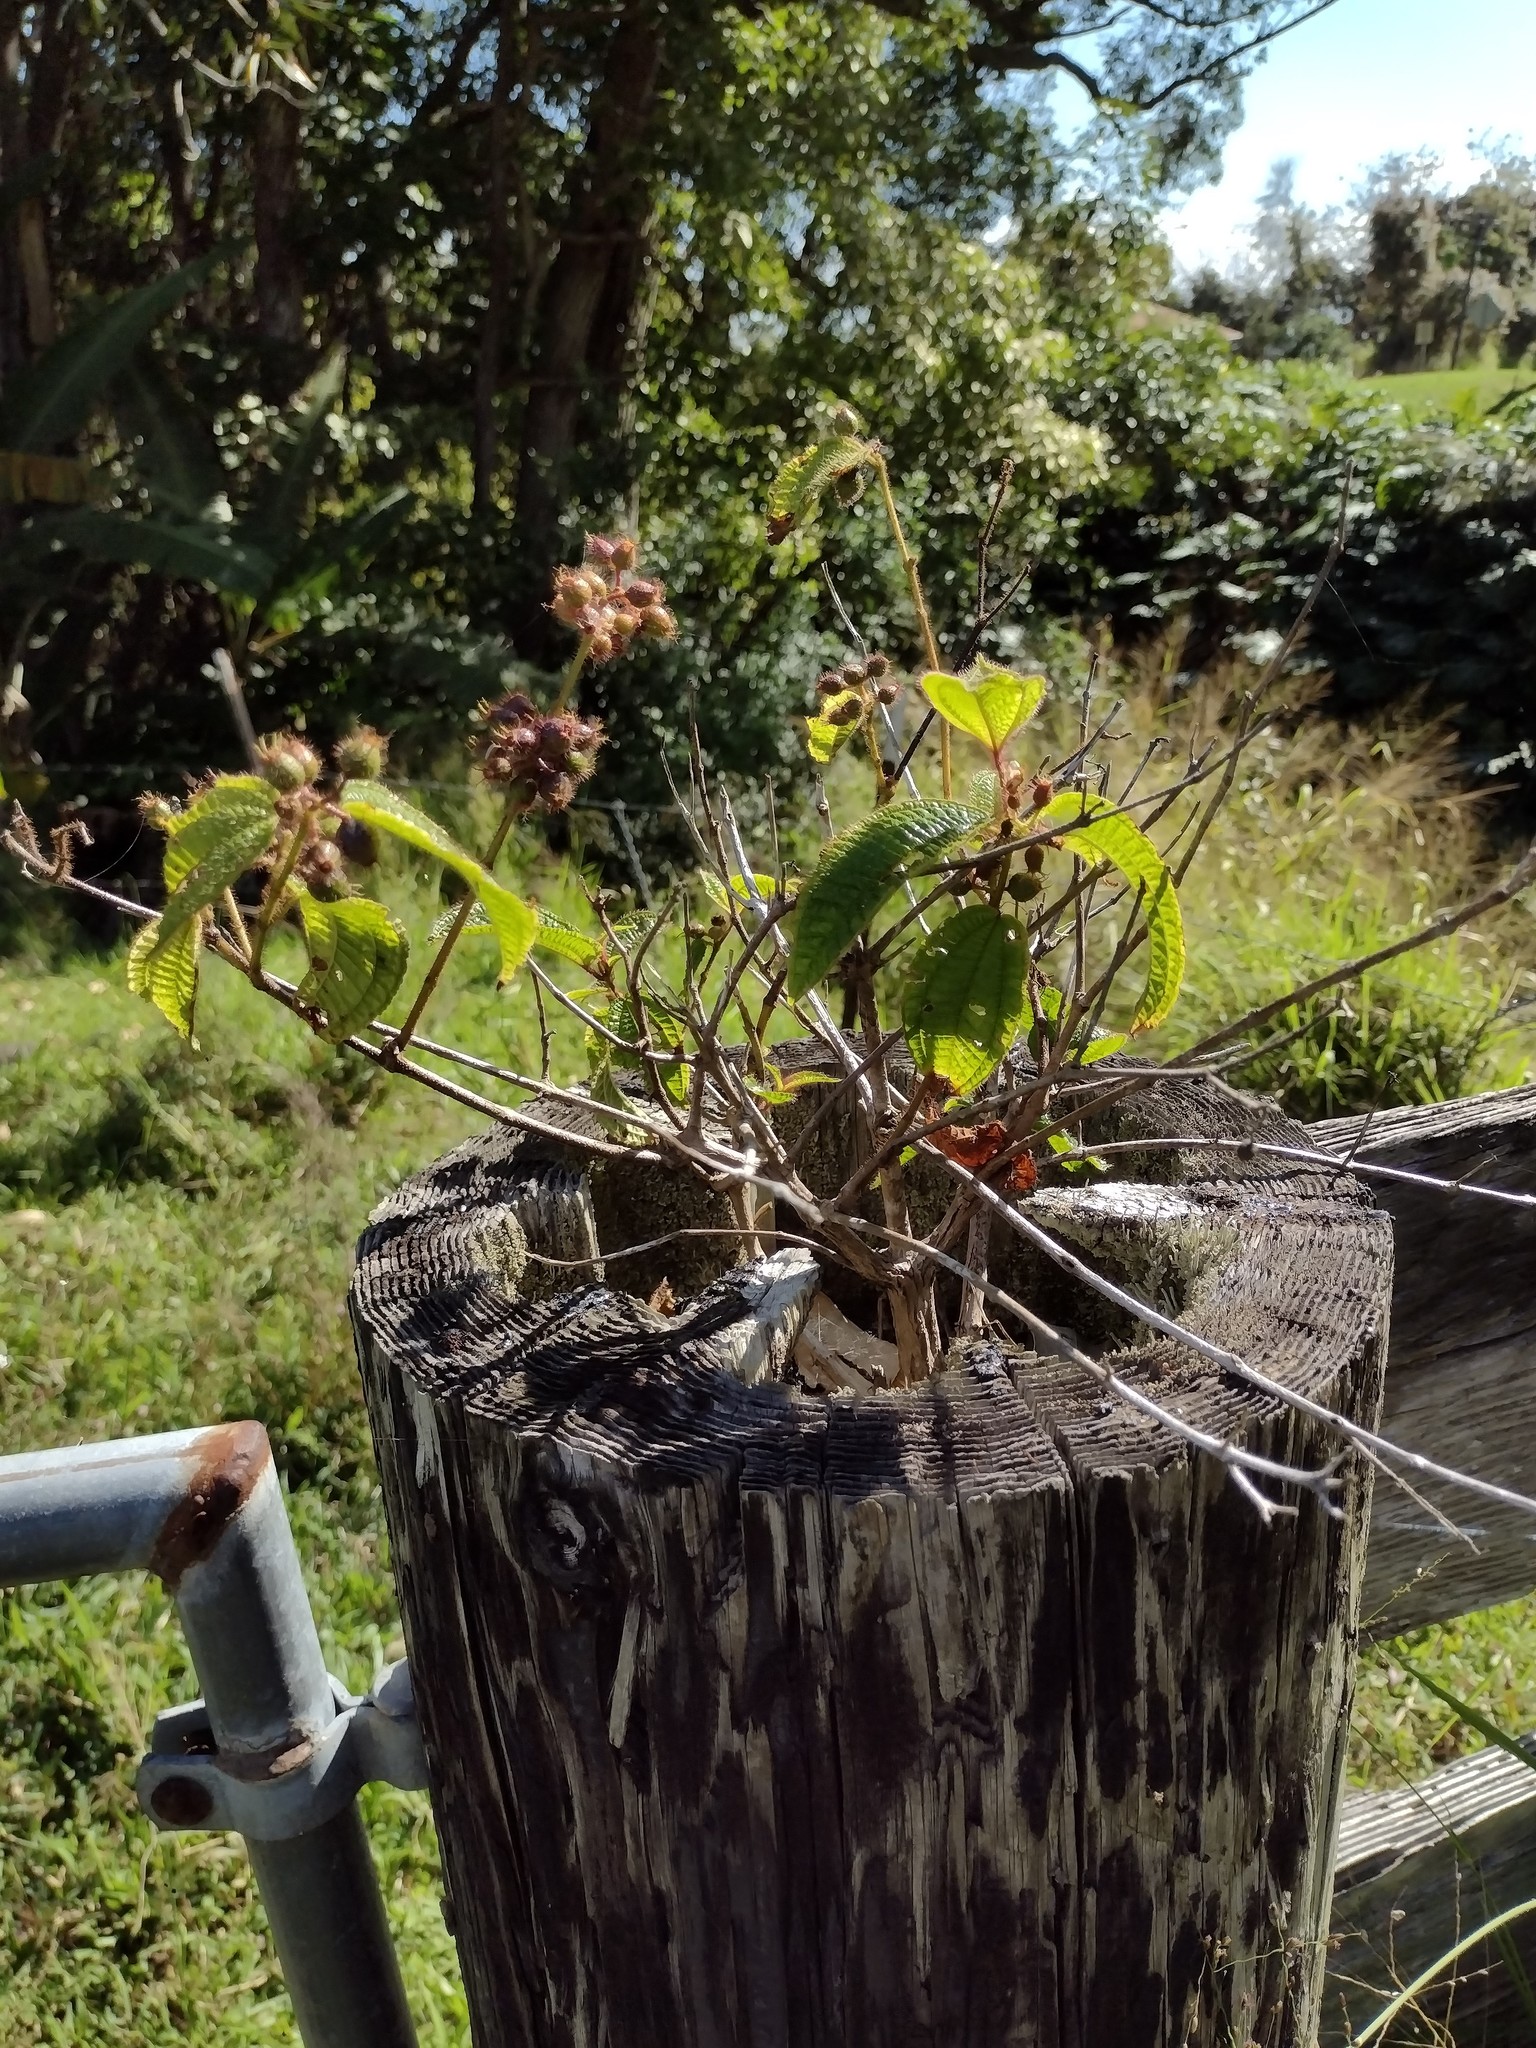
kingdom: Plantae
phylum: Tracheophyta
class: Magnoliopsida
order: Myrtales
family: Melastomataceae
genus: Miconia
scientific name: Miconia crenata
